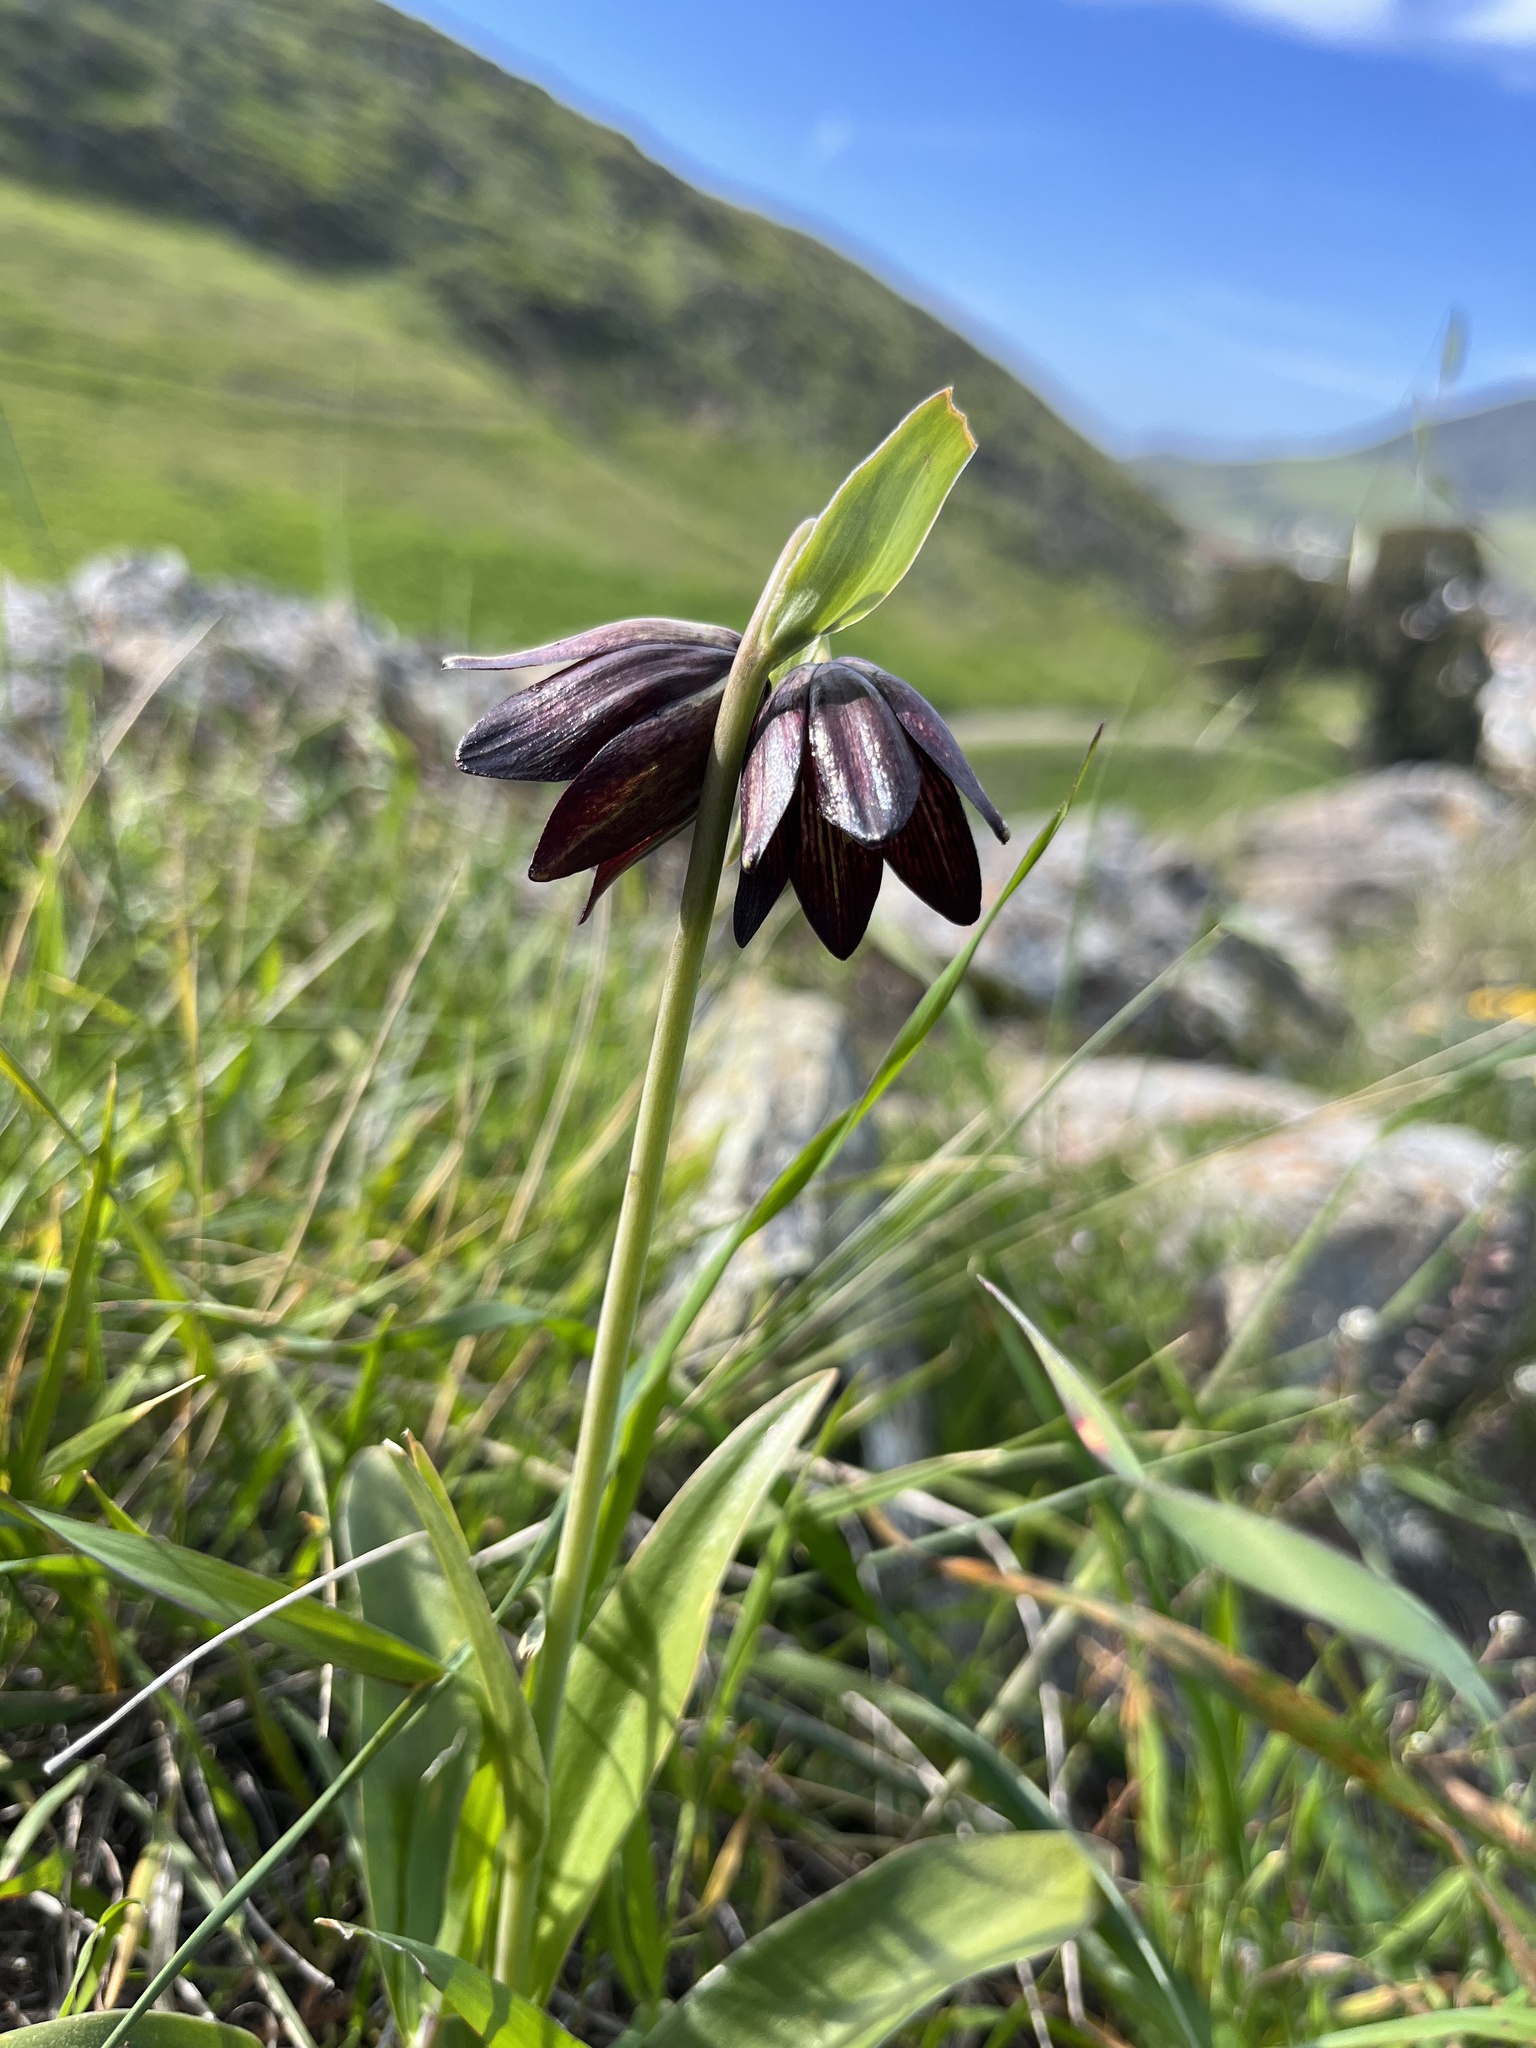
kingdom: Plantae
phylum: Tracheophyta
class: Liliopsida
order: Liliales
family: Liliaceae
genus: Fritillaria
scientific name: Fritillaria biflora
